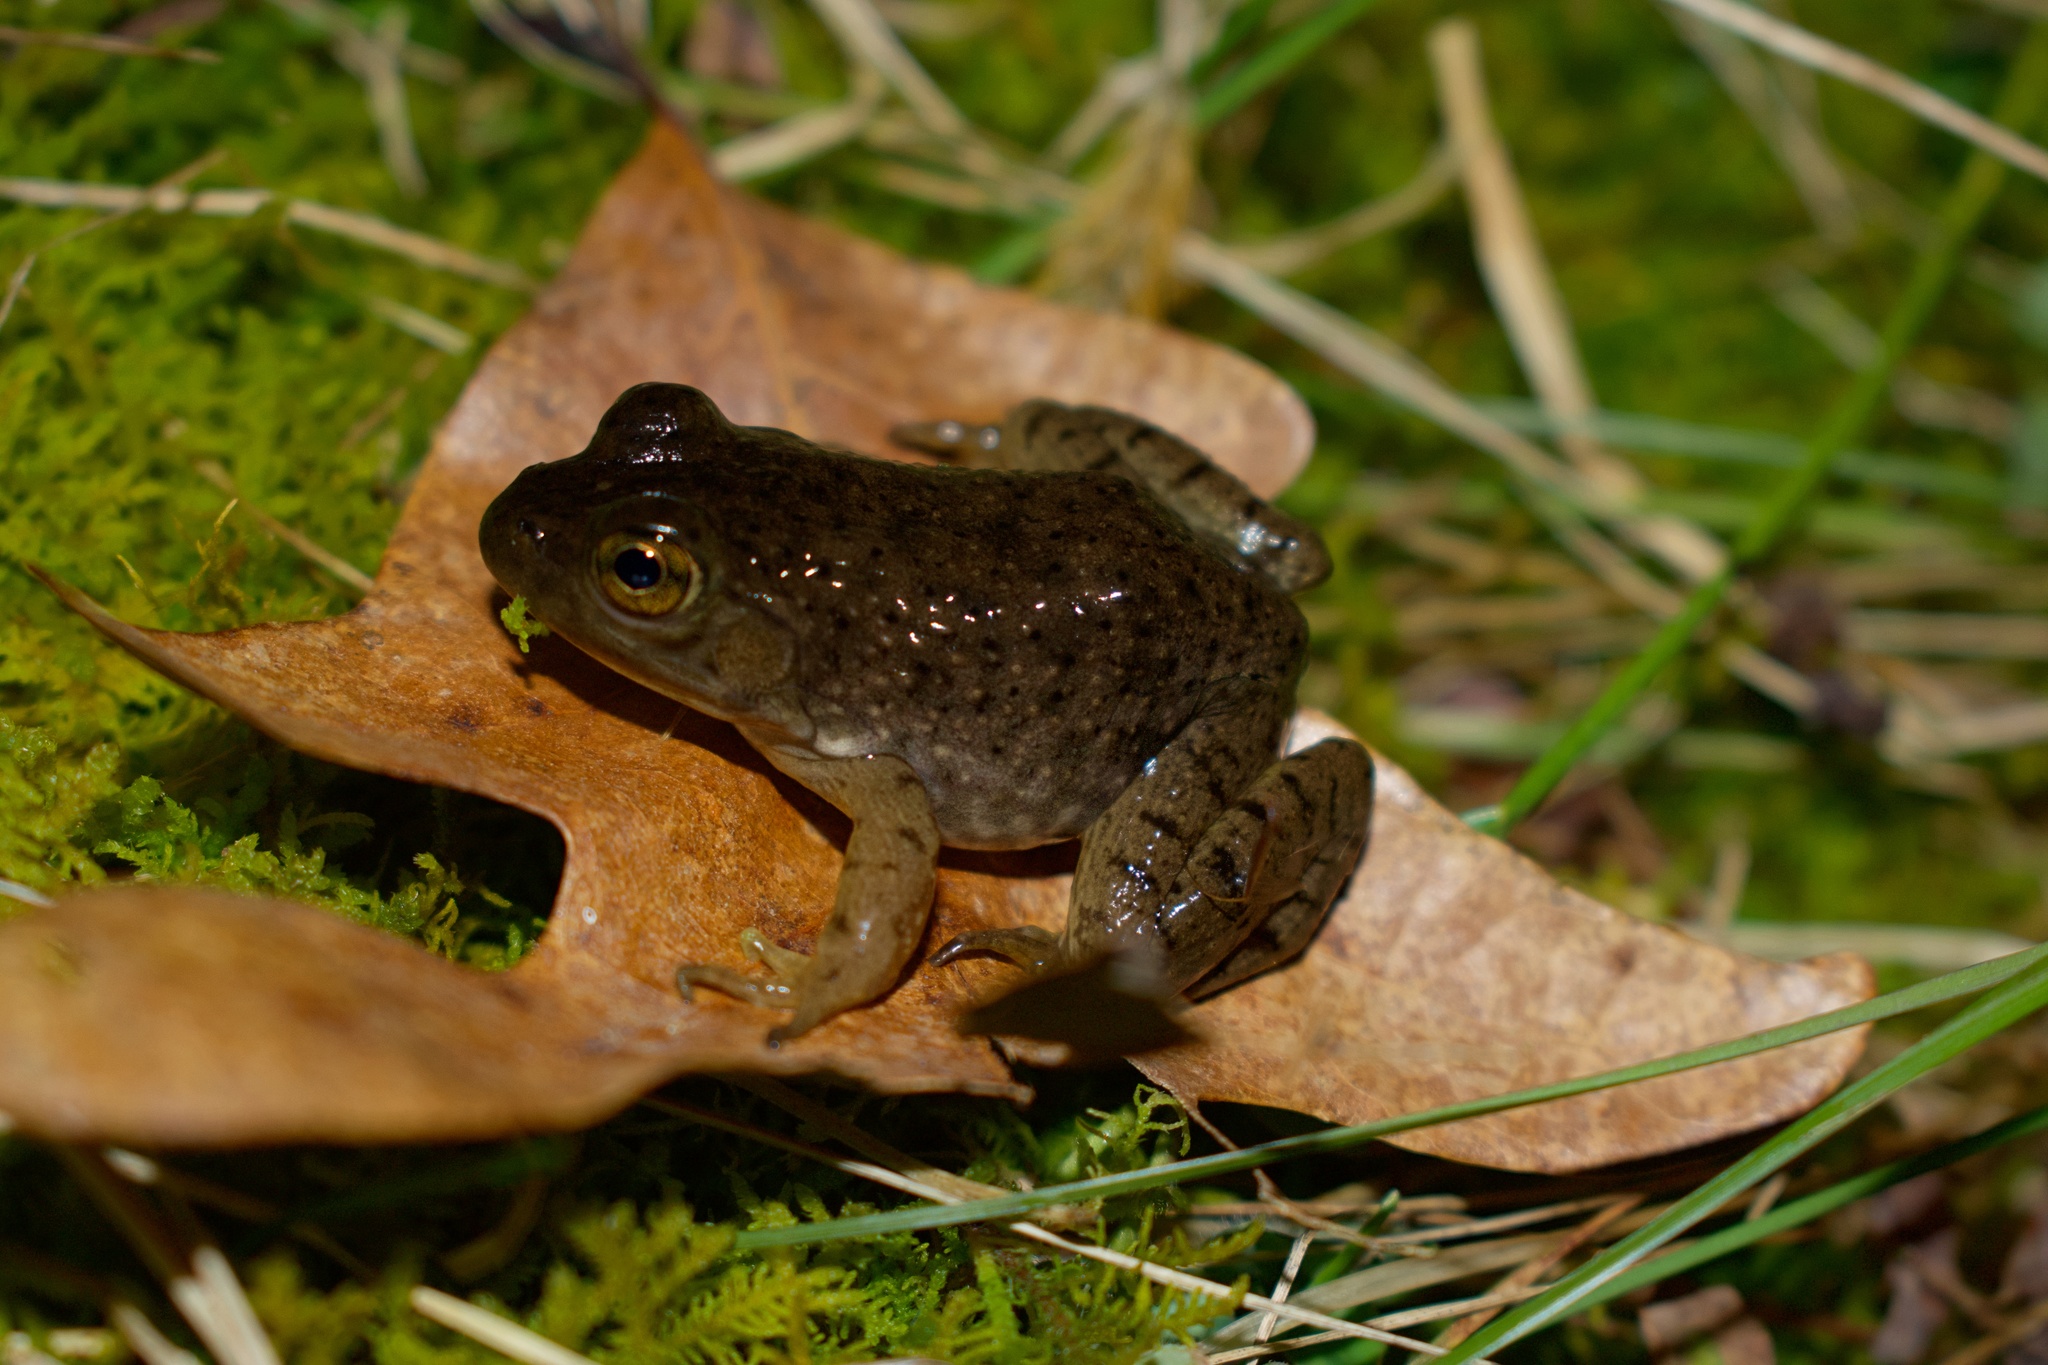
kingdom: Animalia
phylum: Chordata
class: Amphibia
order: Anura
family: Ranidae
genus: Lithobates
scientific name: Lithobates catesbeianus
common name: American bullfrog
